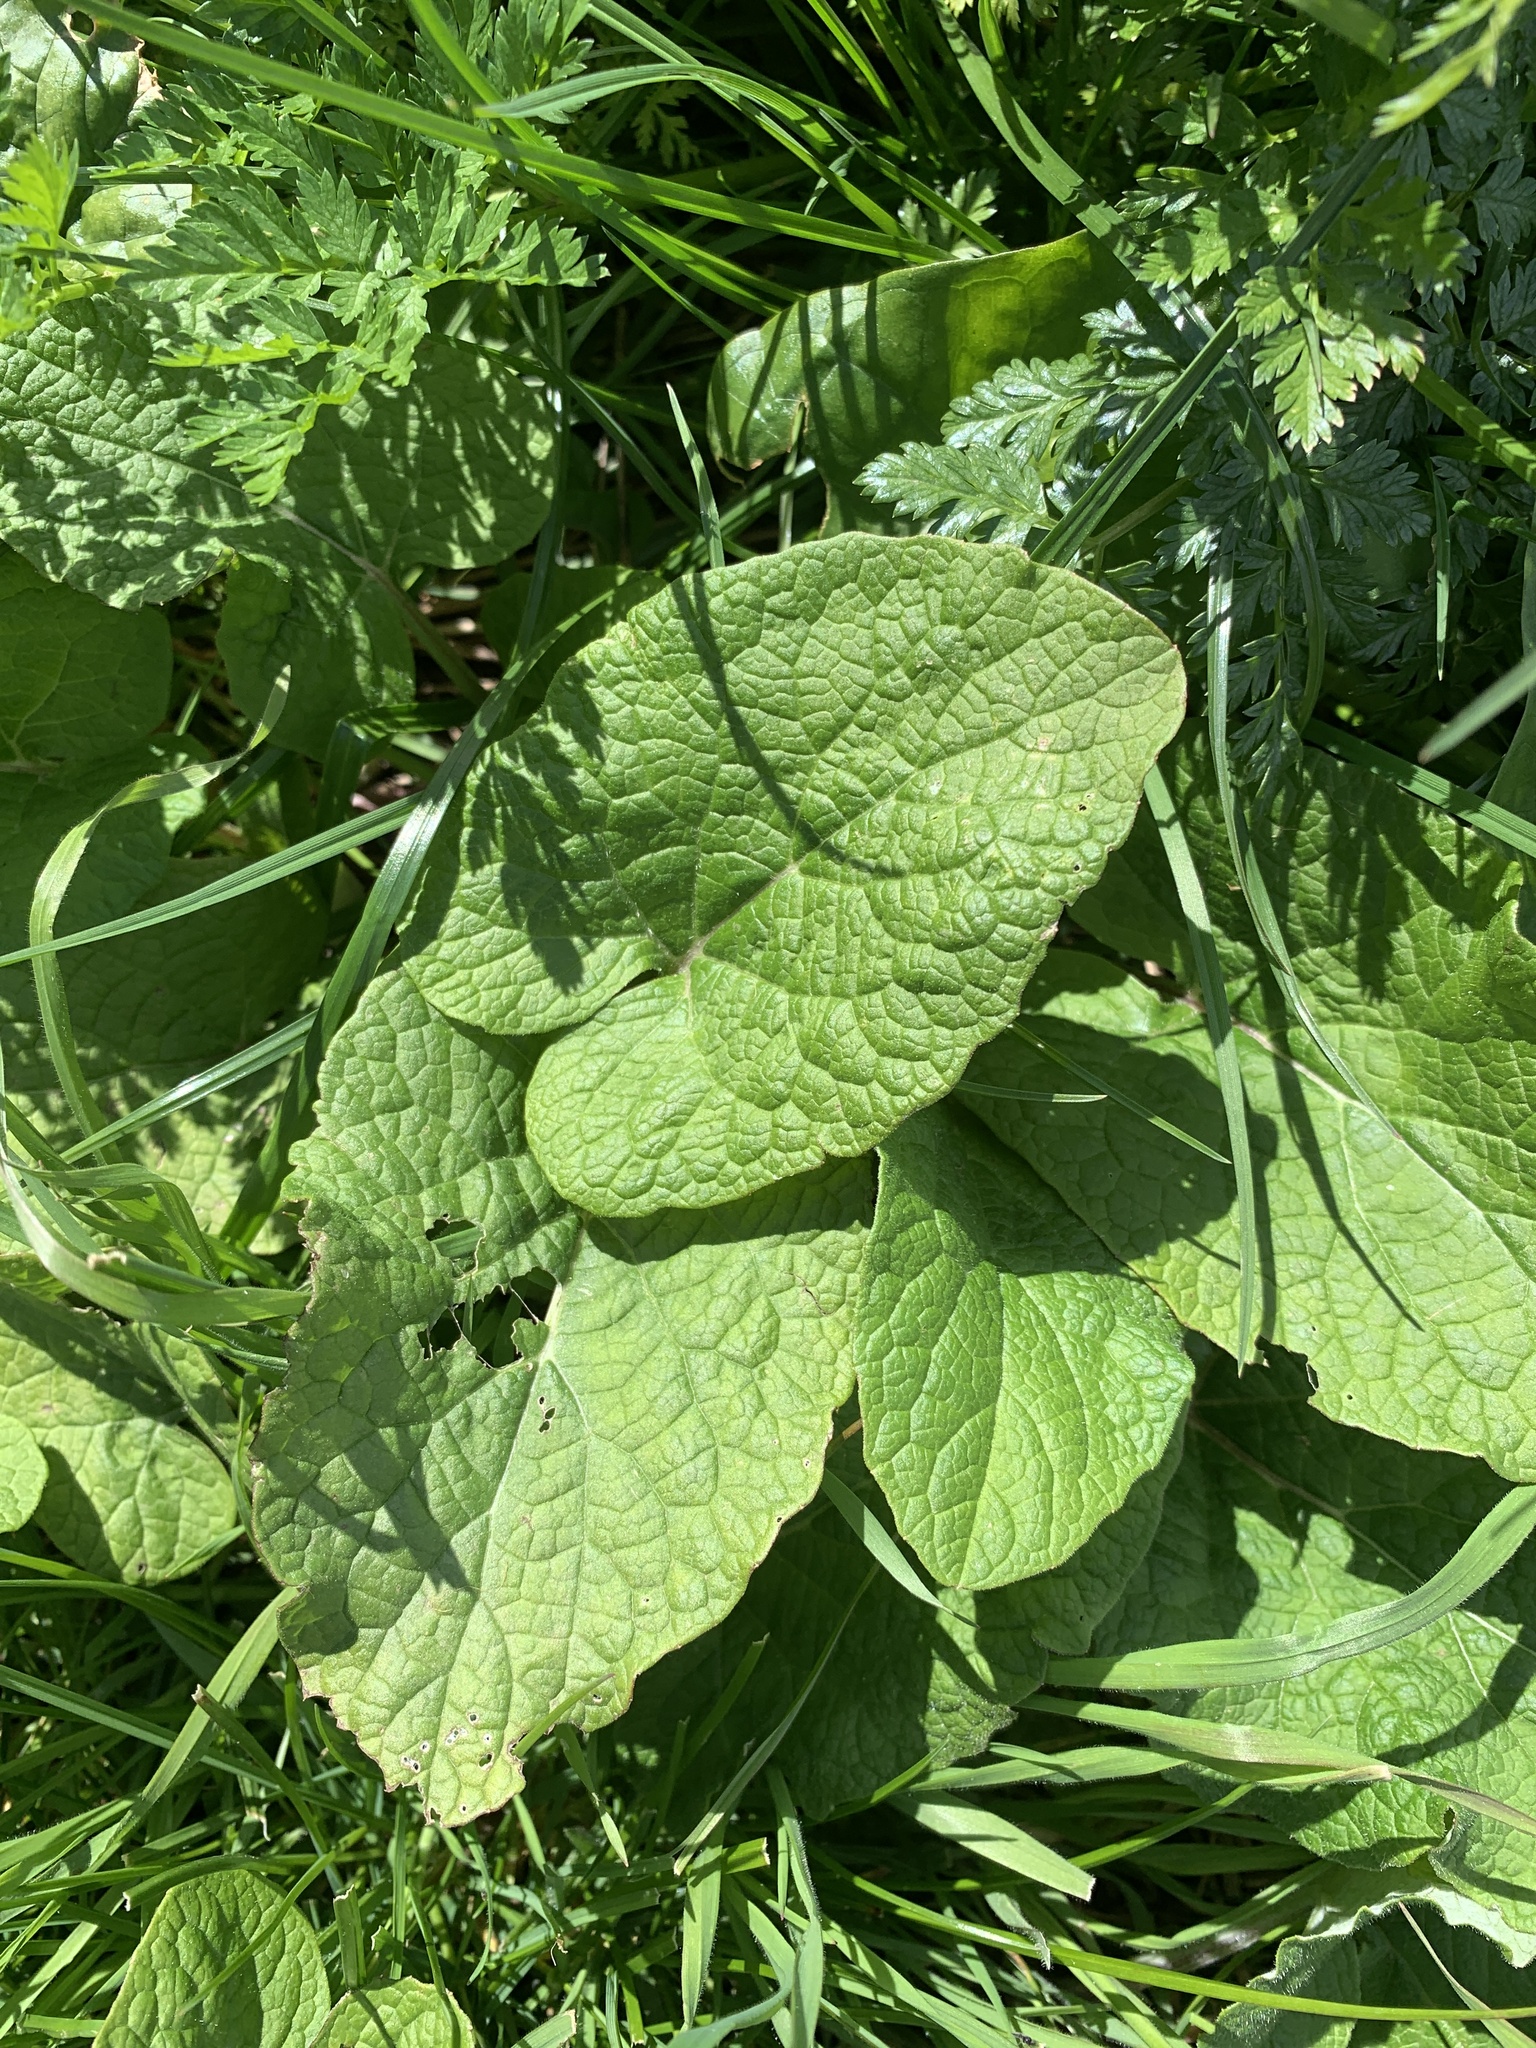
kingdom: Plantae
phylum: Tracheophyta
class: Magnoliopsida
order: Ericales
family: Primulaceae
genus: Primula
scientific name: Primula vulgaris
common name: Primrose
